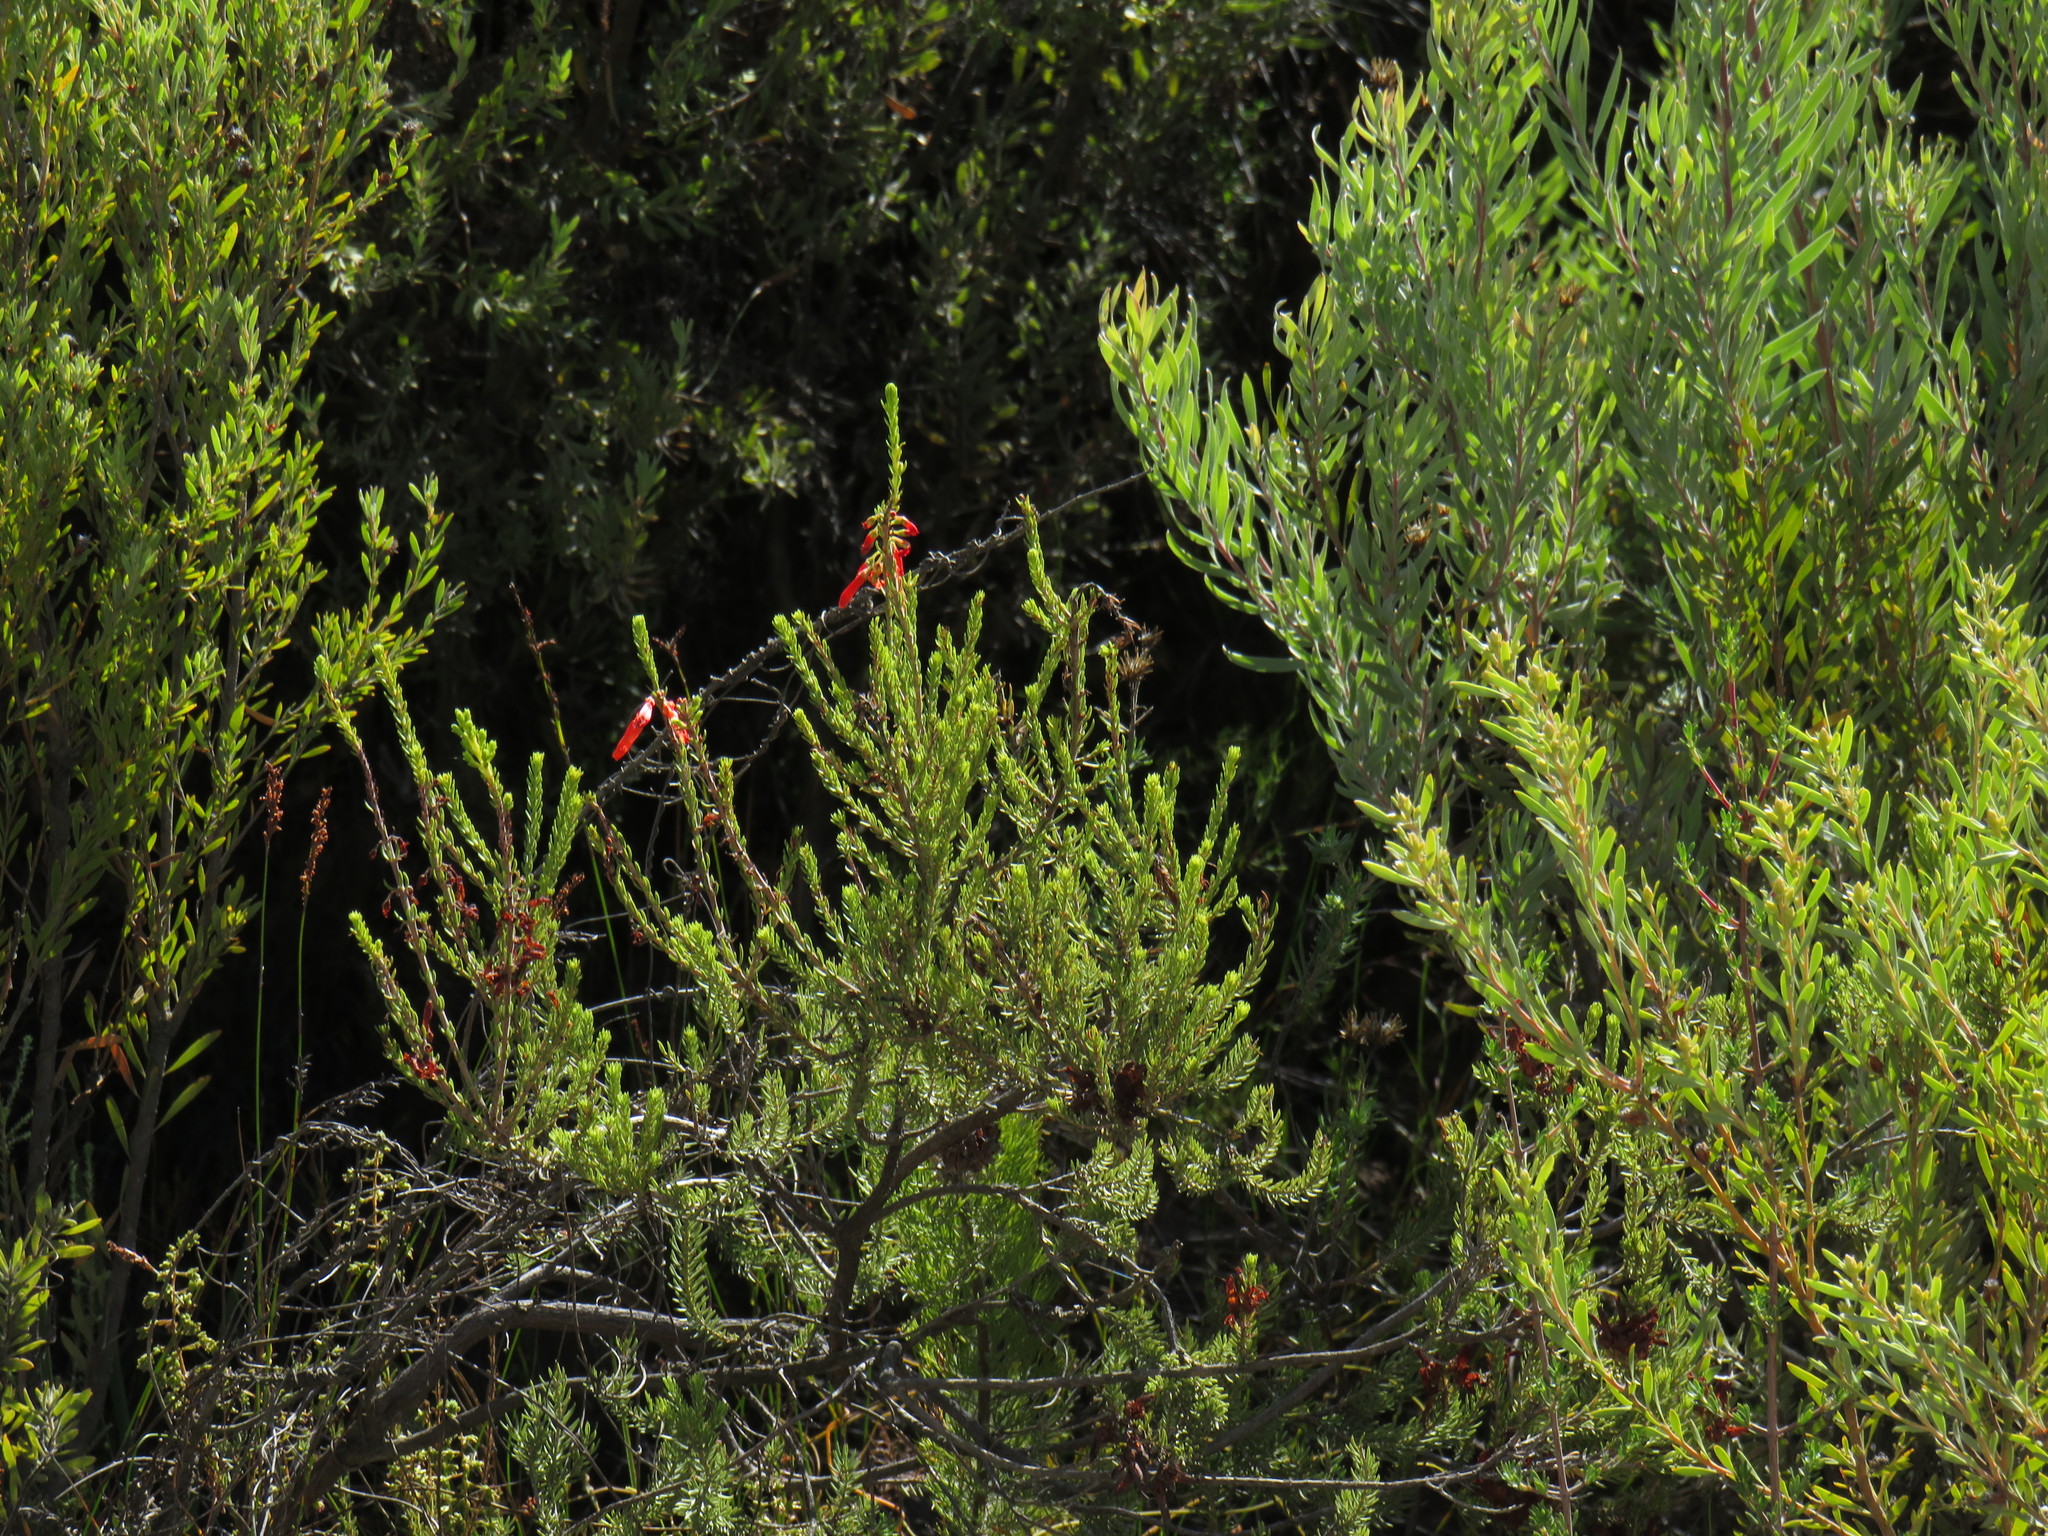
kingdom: Plantae
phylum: Tracheophyta
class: Magnoliopsida
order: Ericales
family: Ericaceae
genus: Erica
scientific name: Erica mammosa
